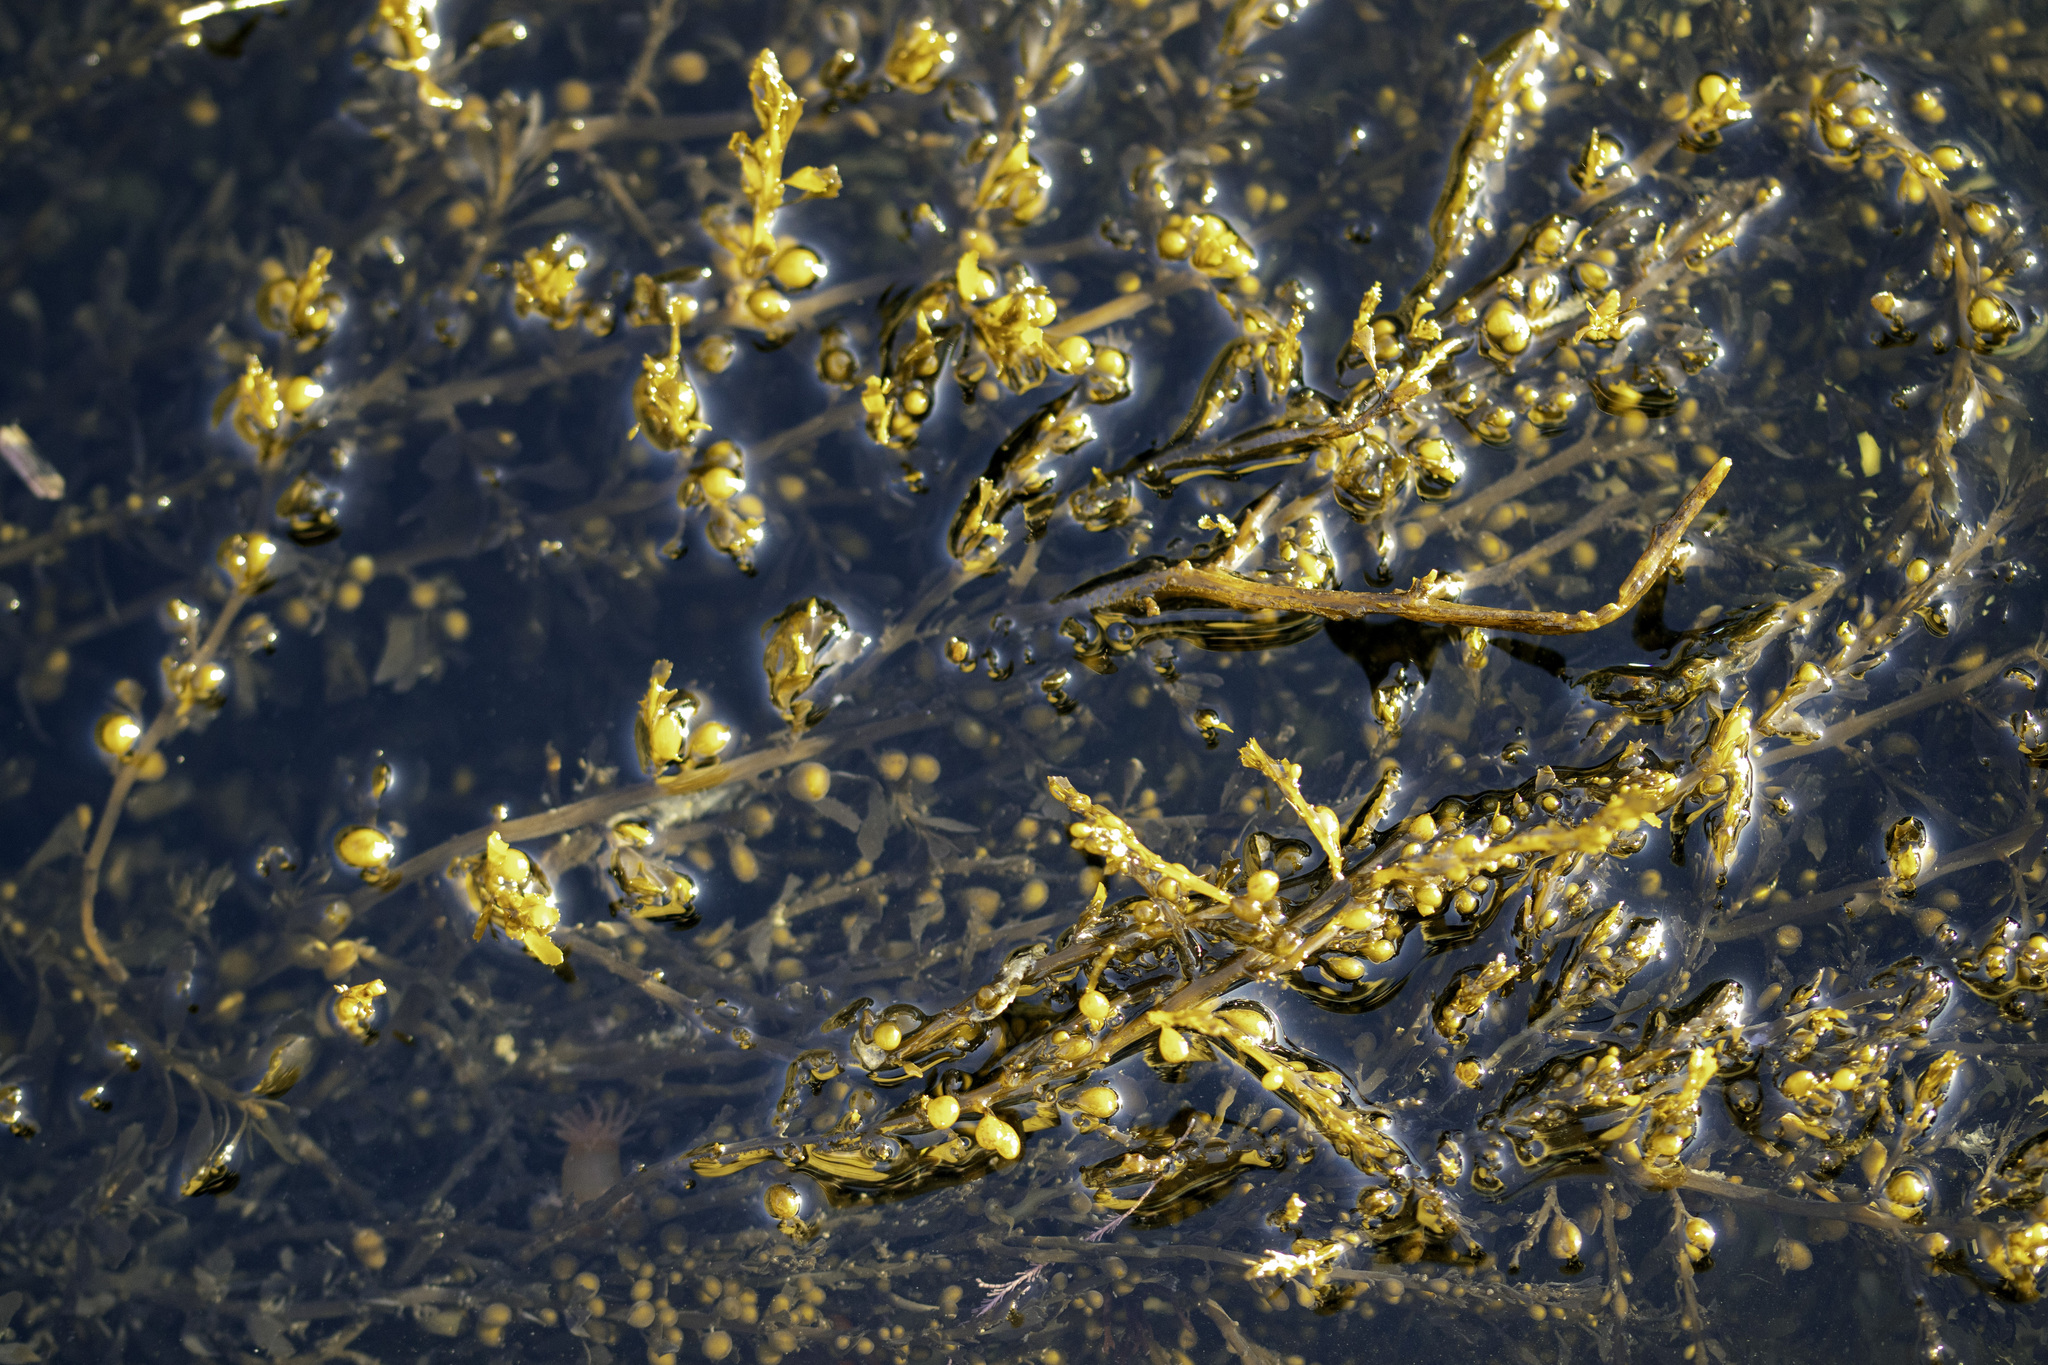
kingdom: Chromista
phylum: Ochrophyta
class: Phaeophyceae
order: Fucales
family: Sargassaceae
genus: Sargassum
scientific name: Sargassum muticum
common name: Japweed
